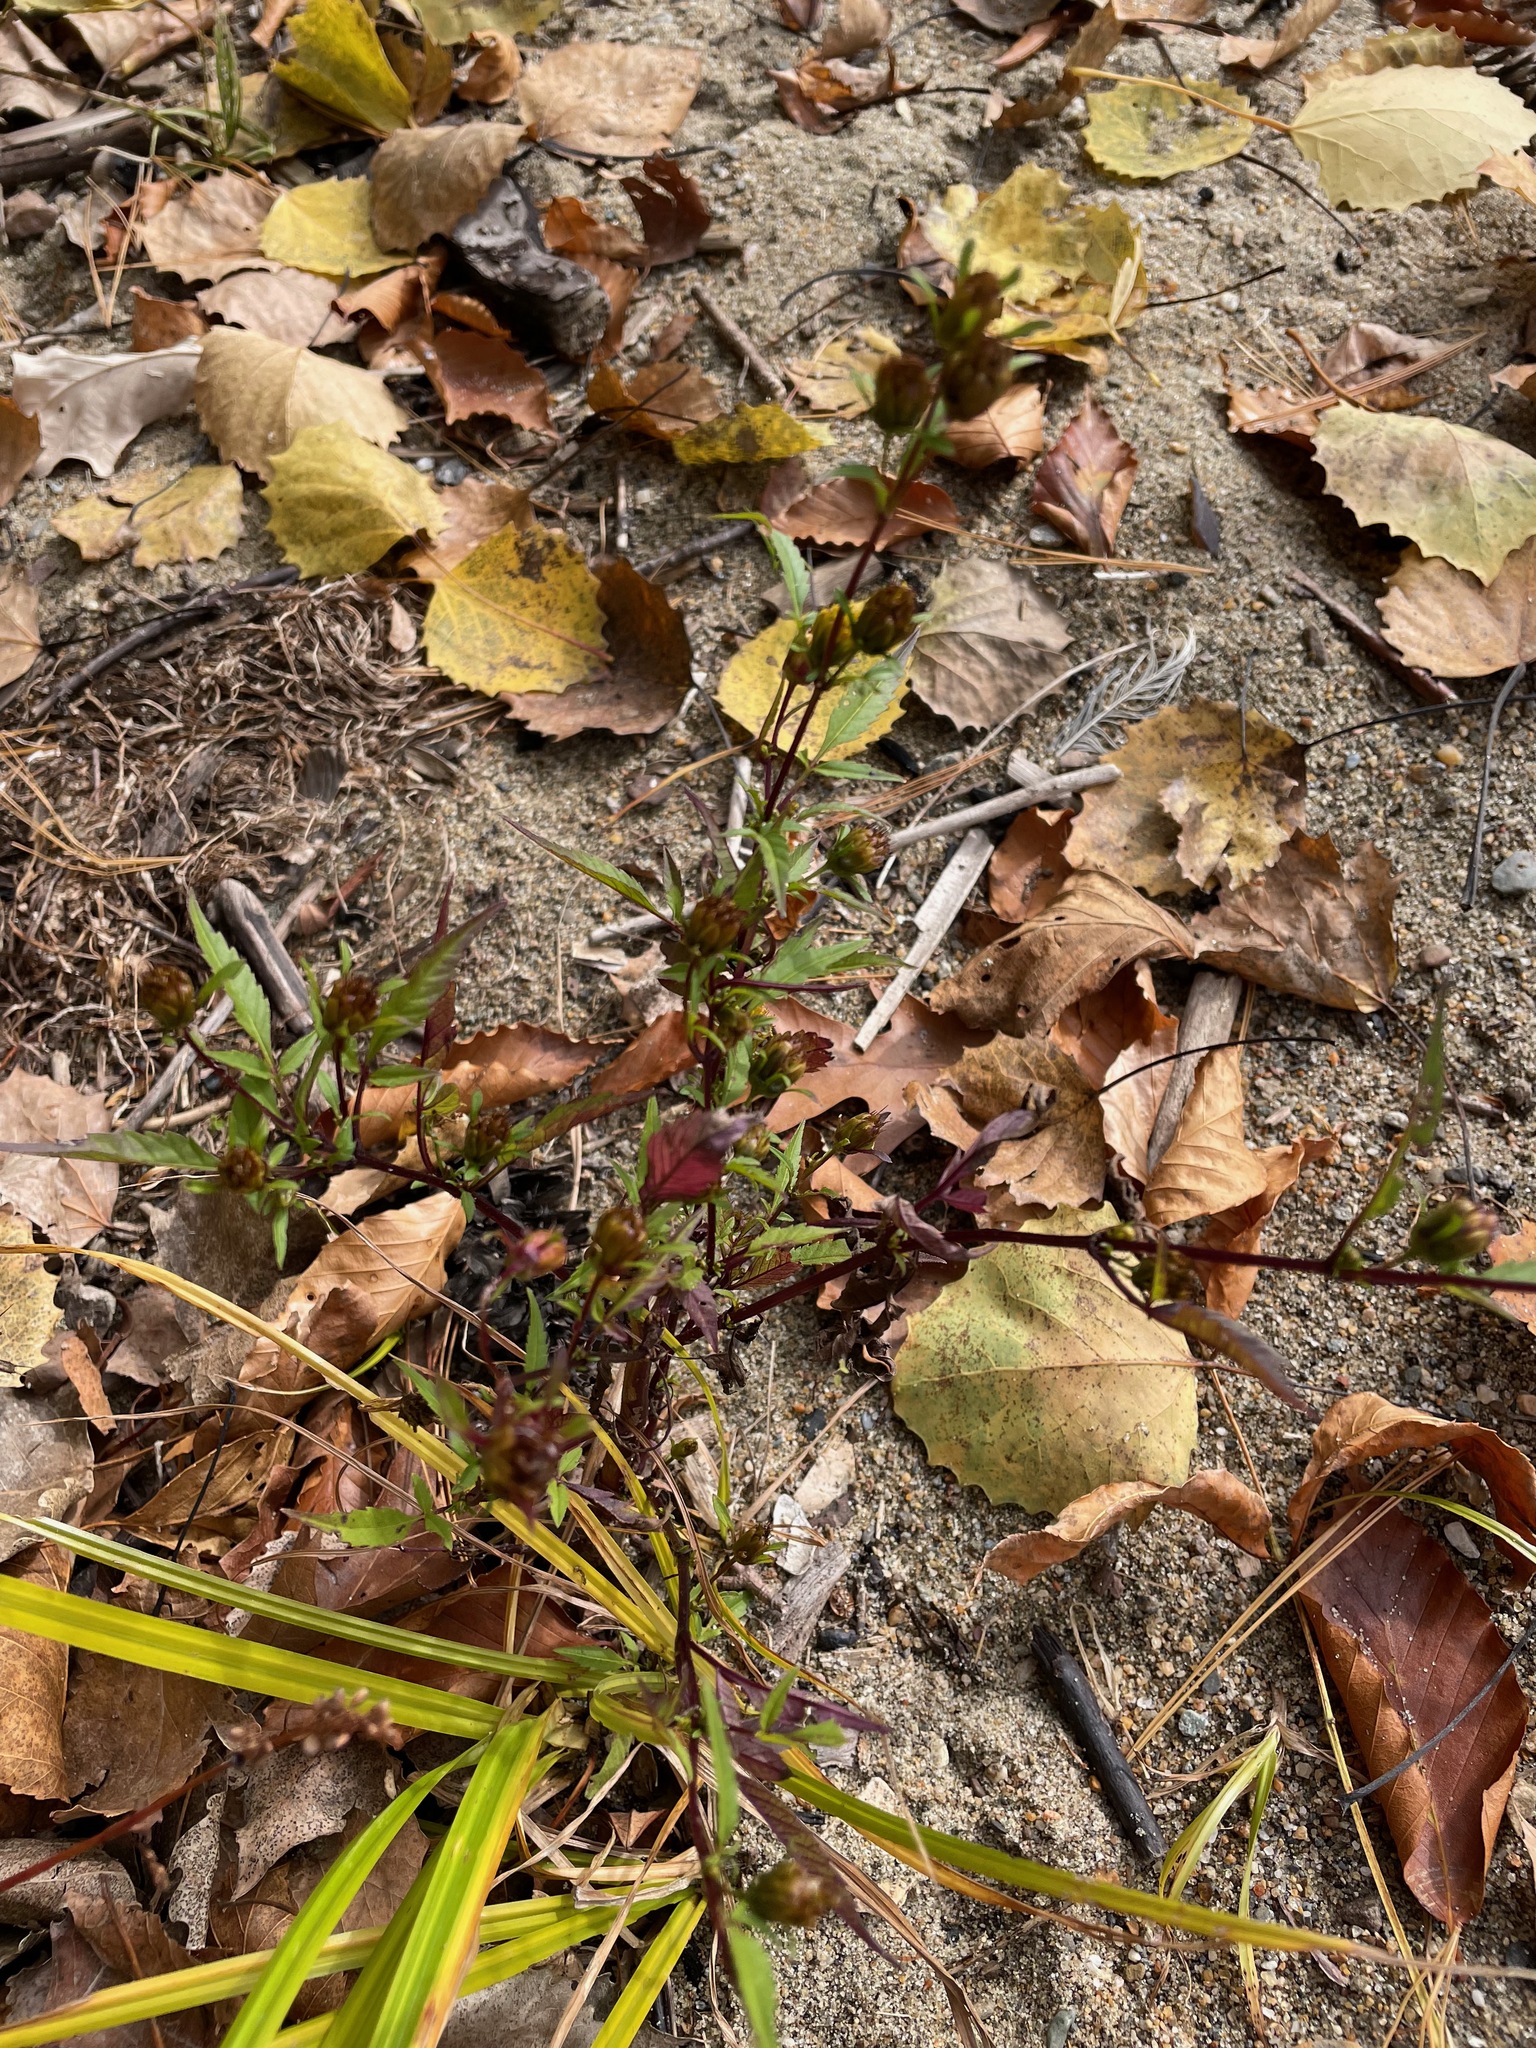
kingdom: Plantae
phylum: Tracheophyta
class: Magnoliopsida
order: Asterales
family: Asteraceae
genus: Bidens
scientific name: Bidens frondosa
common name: Beggarticks
